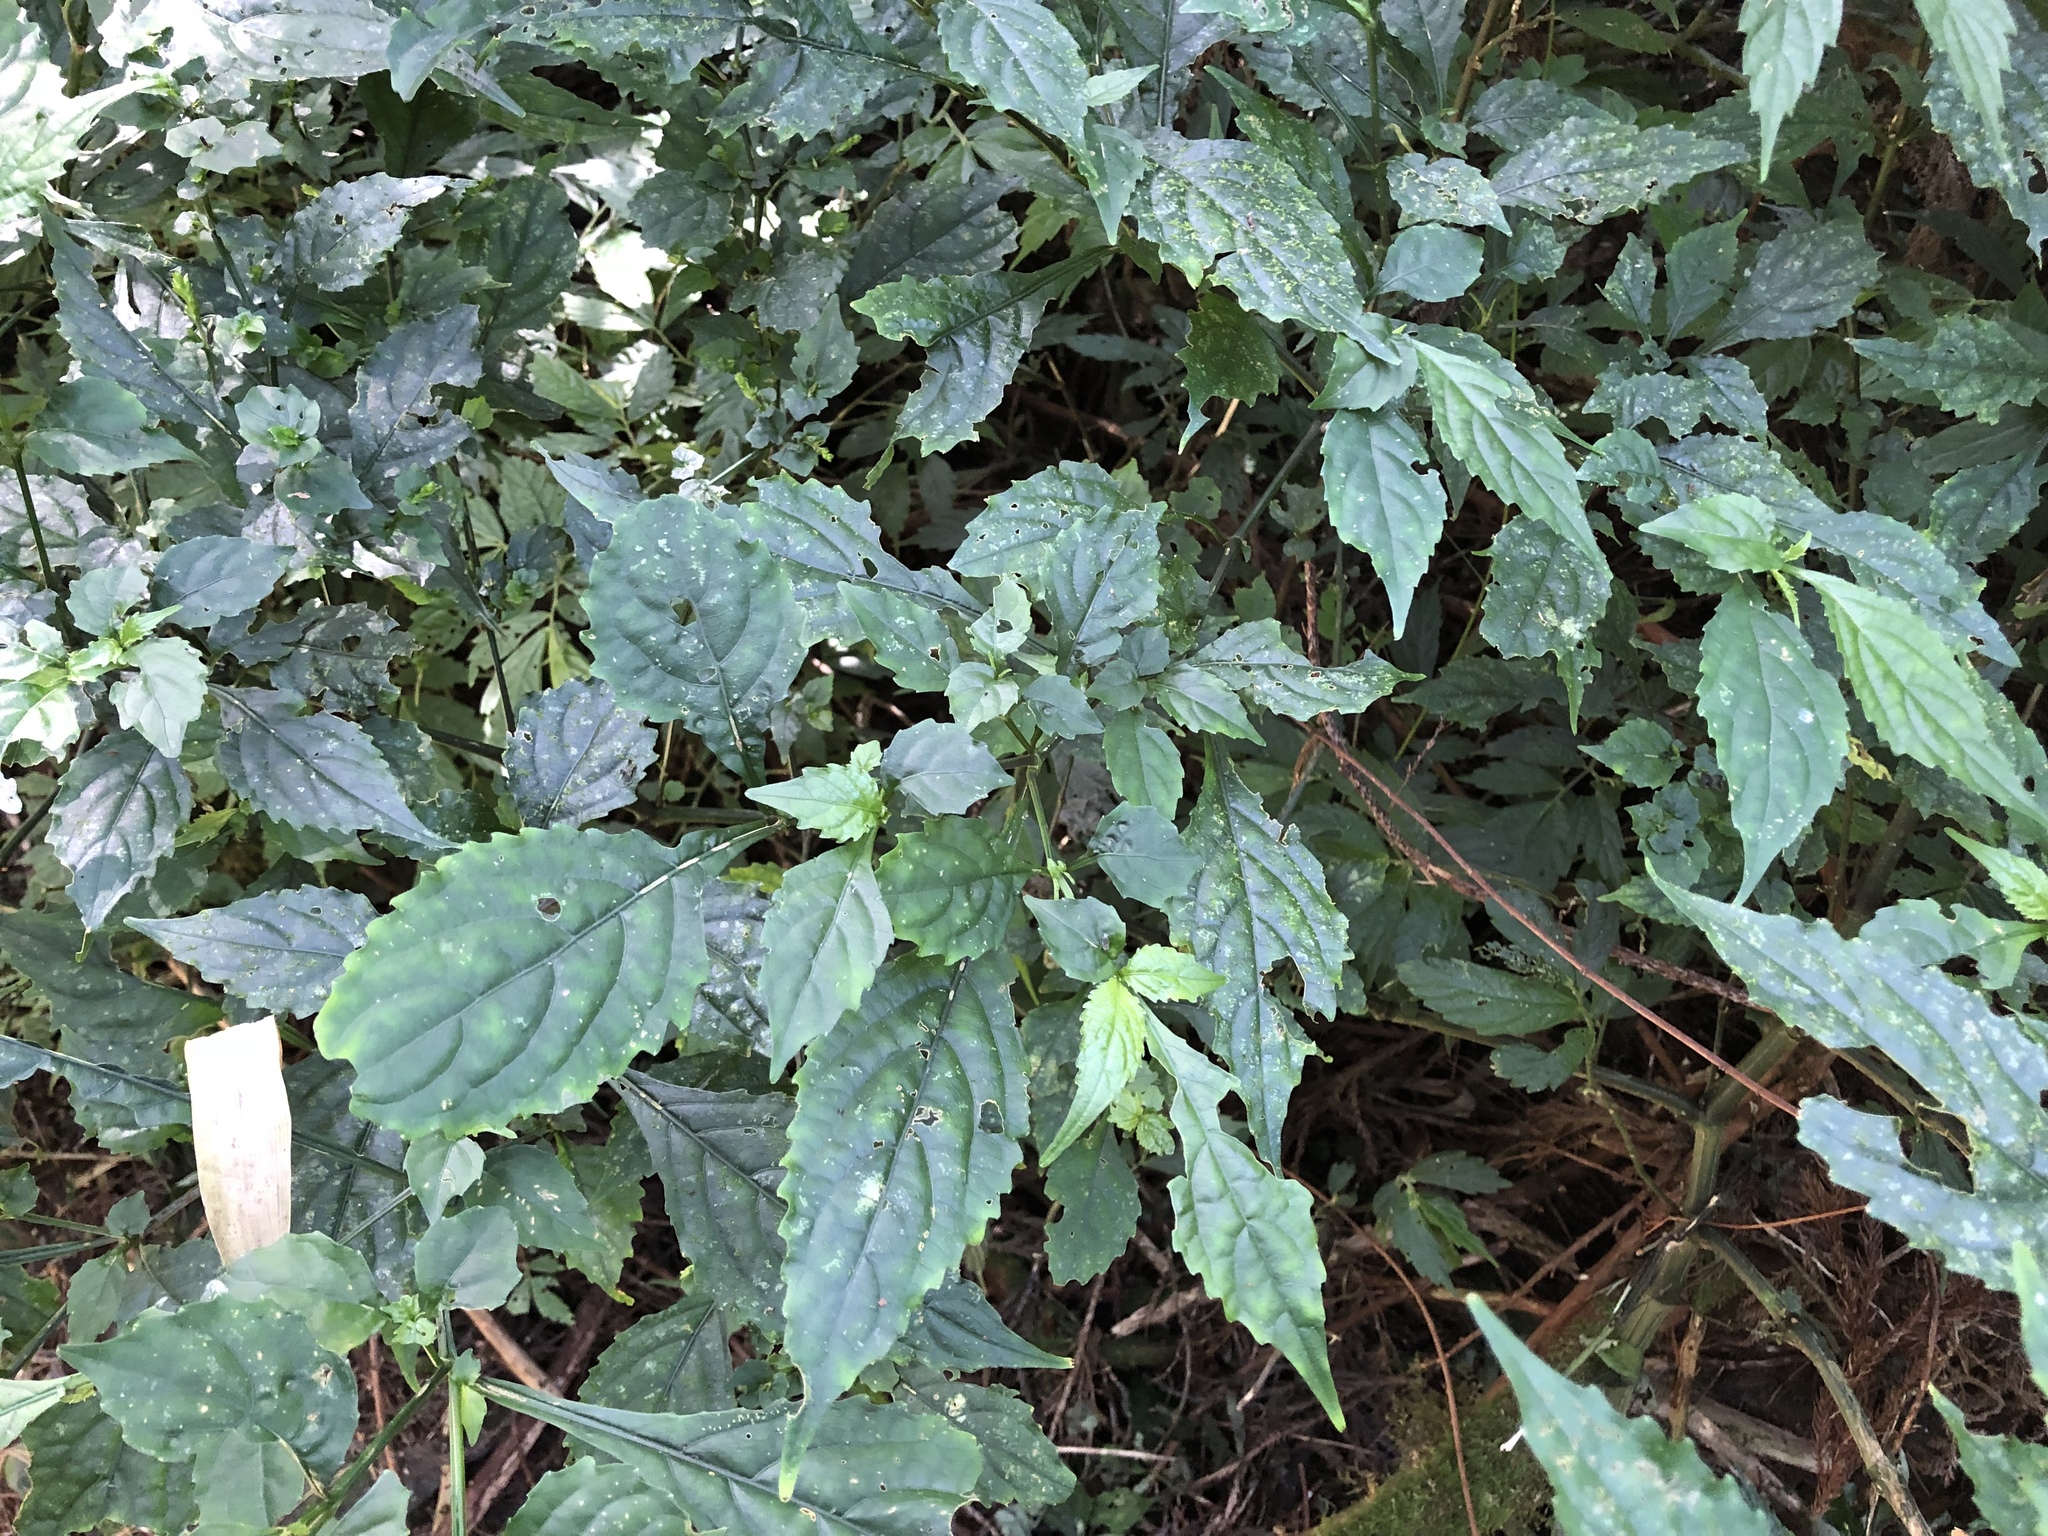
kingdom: Plantae
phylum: Tracheophyta
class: Magnoliopsida
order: Lamiales
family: Acanthaceae
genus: Strobilanthes
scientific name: Strobilanthes flexicaulis
